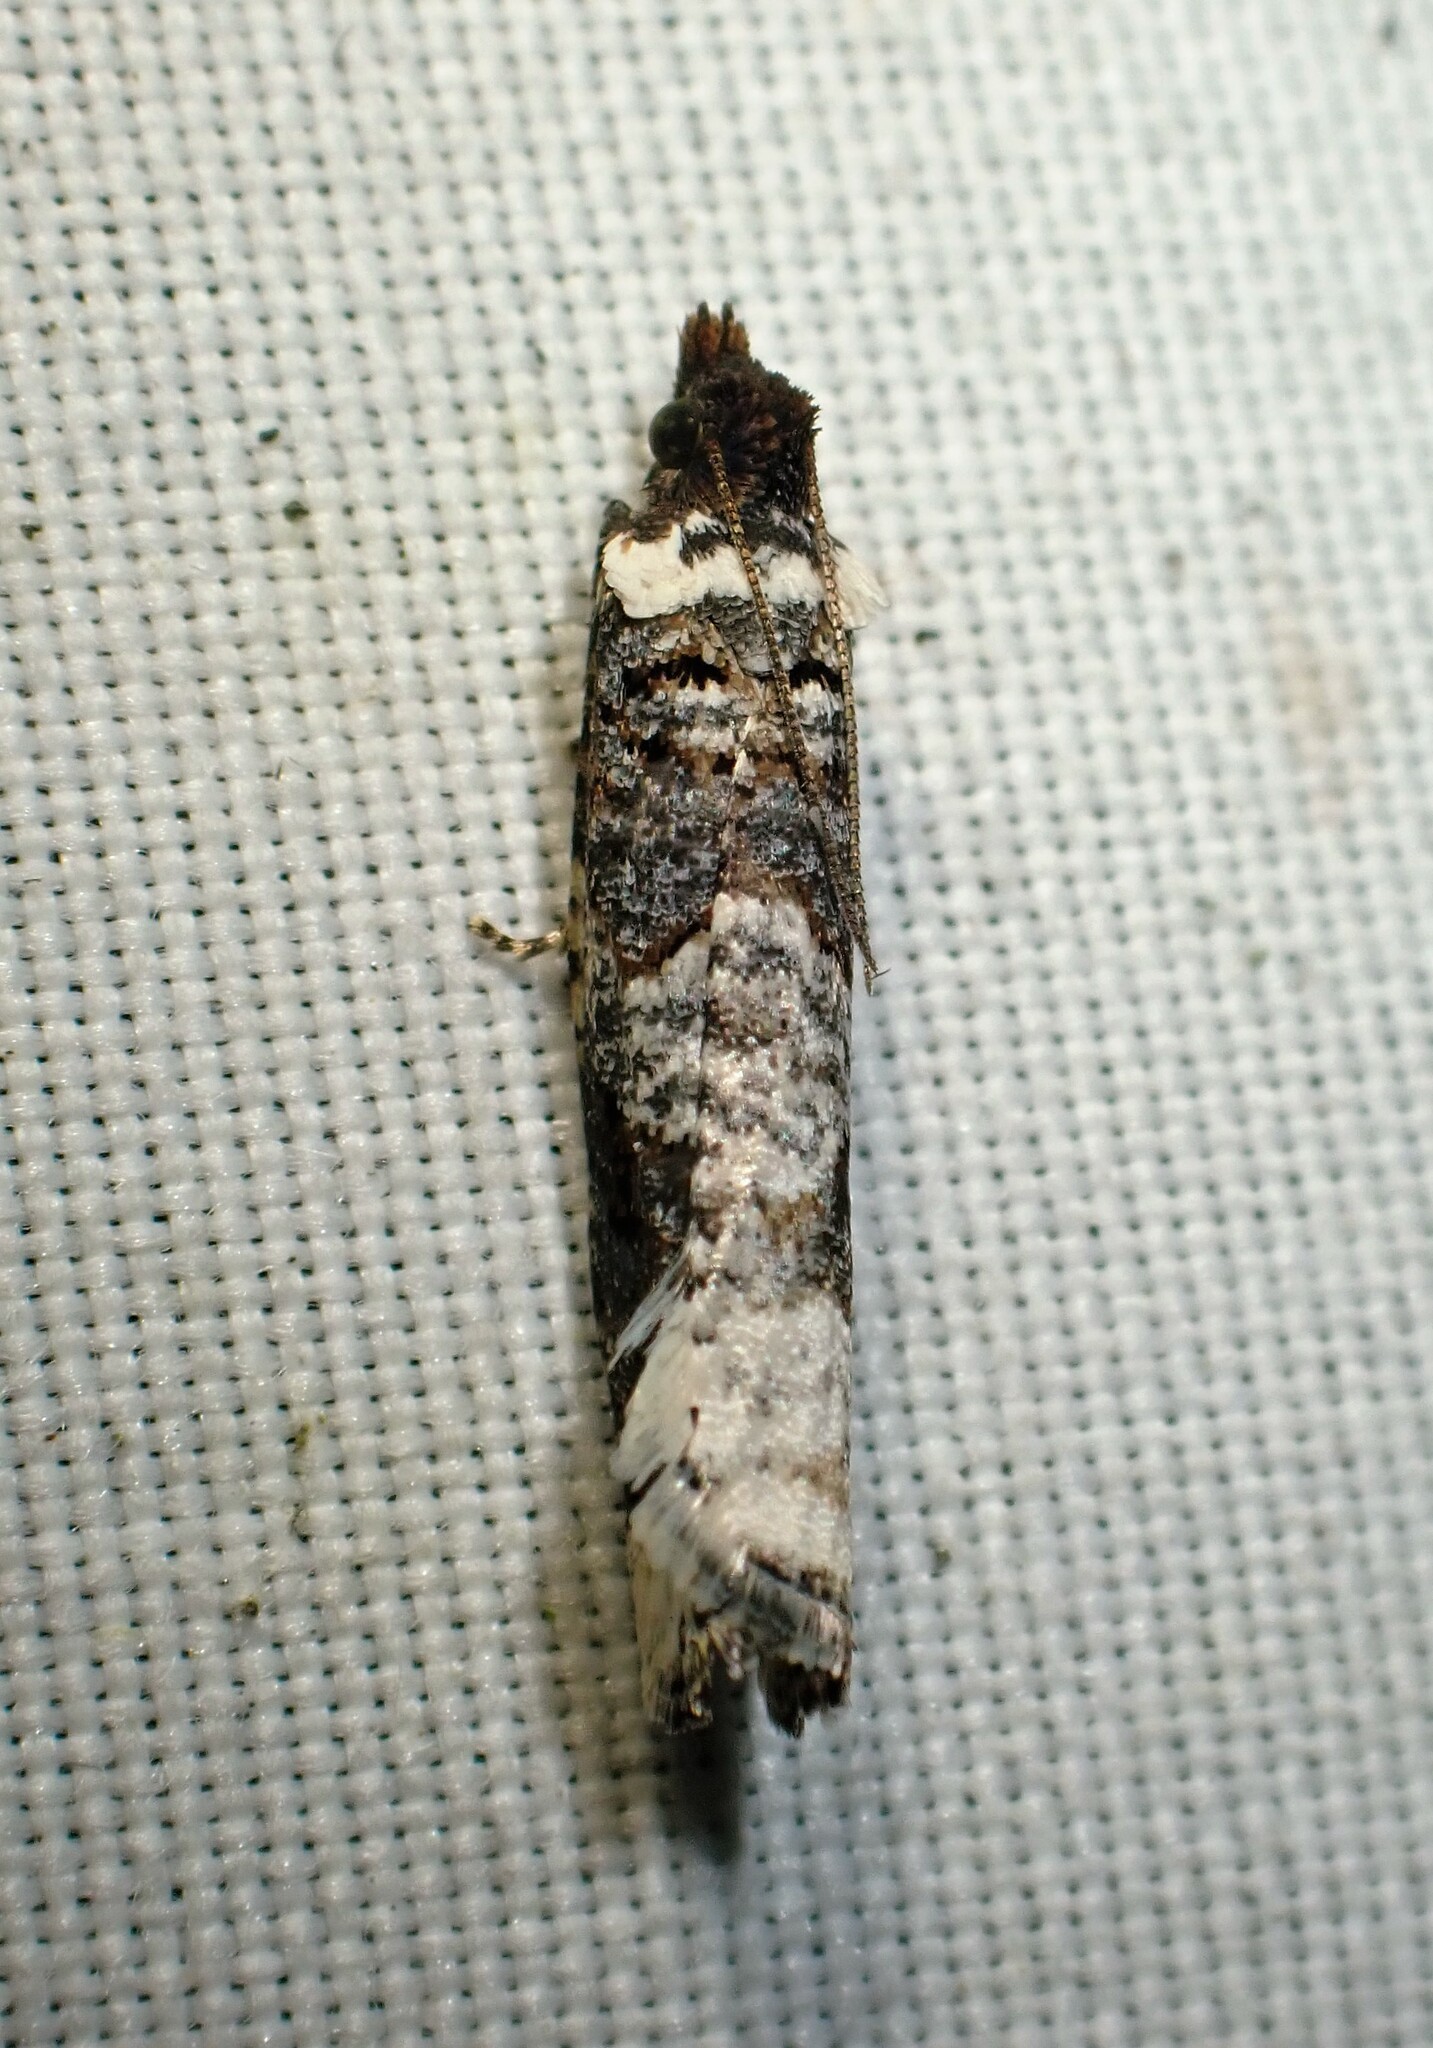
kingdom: Animalia
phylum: Arthropoda
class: Insecta
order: Lepidoptera
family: Tortricidae
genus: Epinotia
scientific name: Epinotia lomonana
